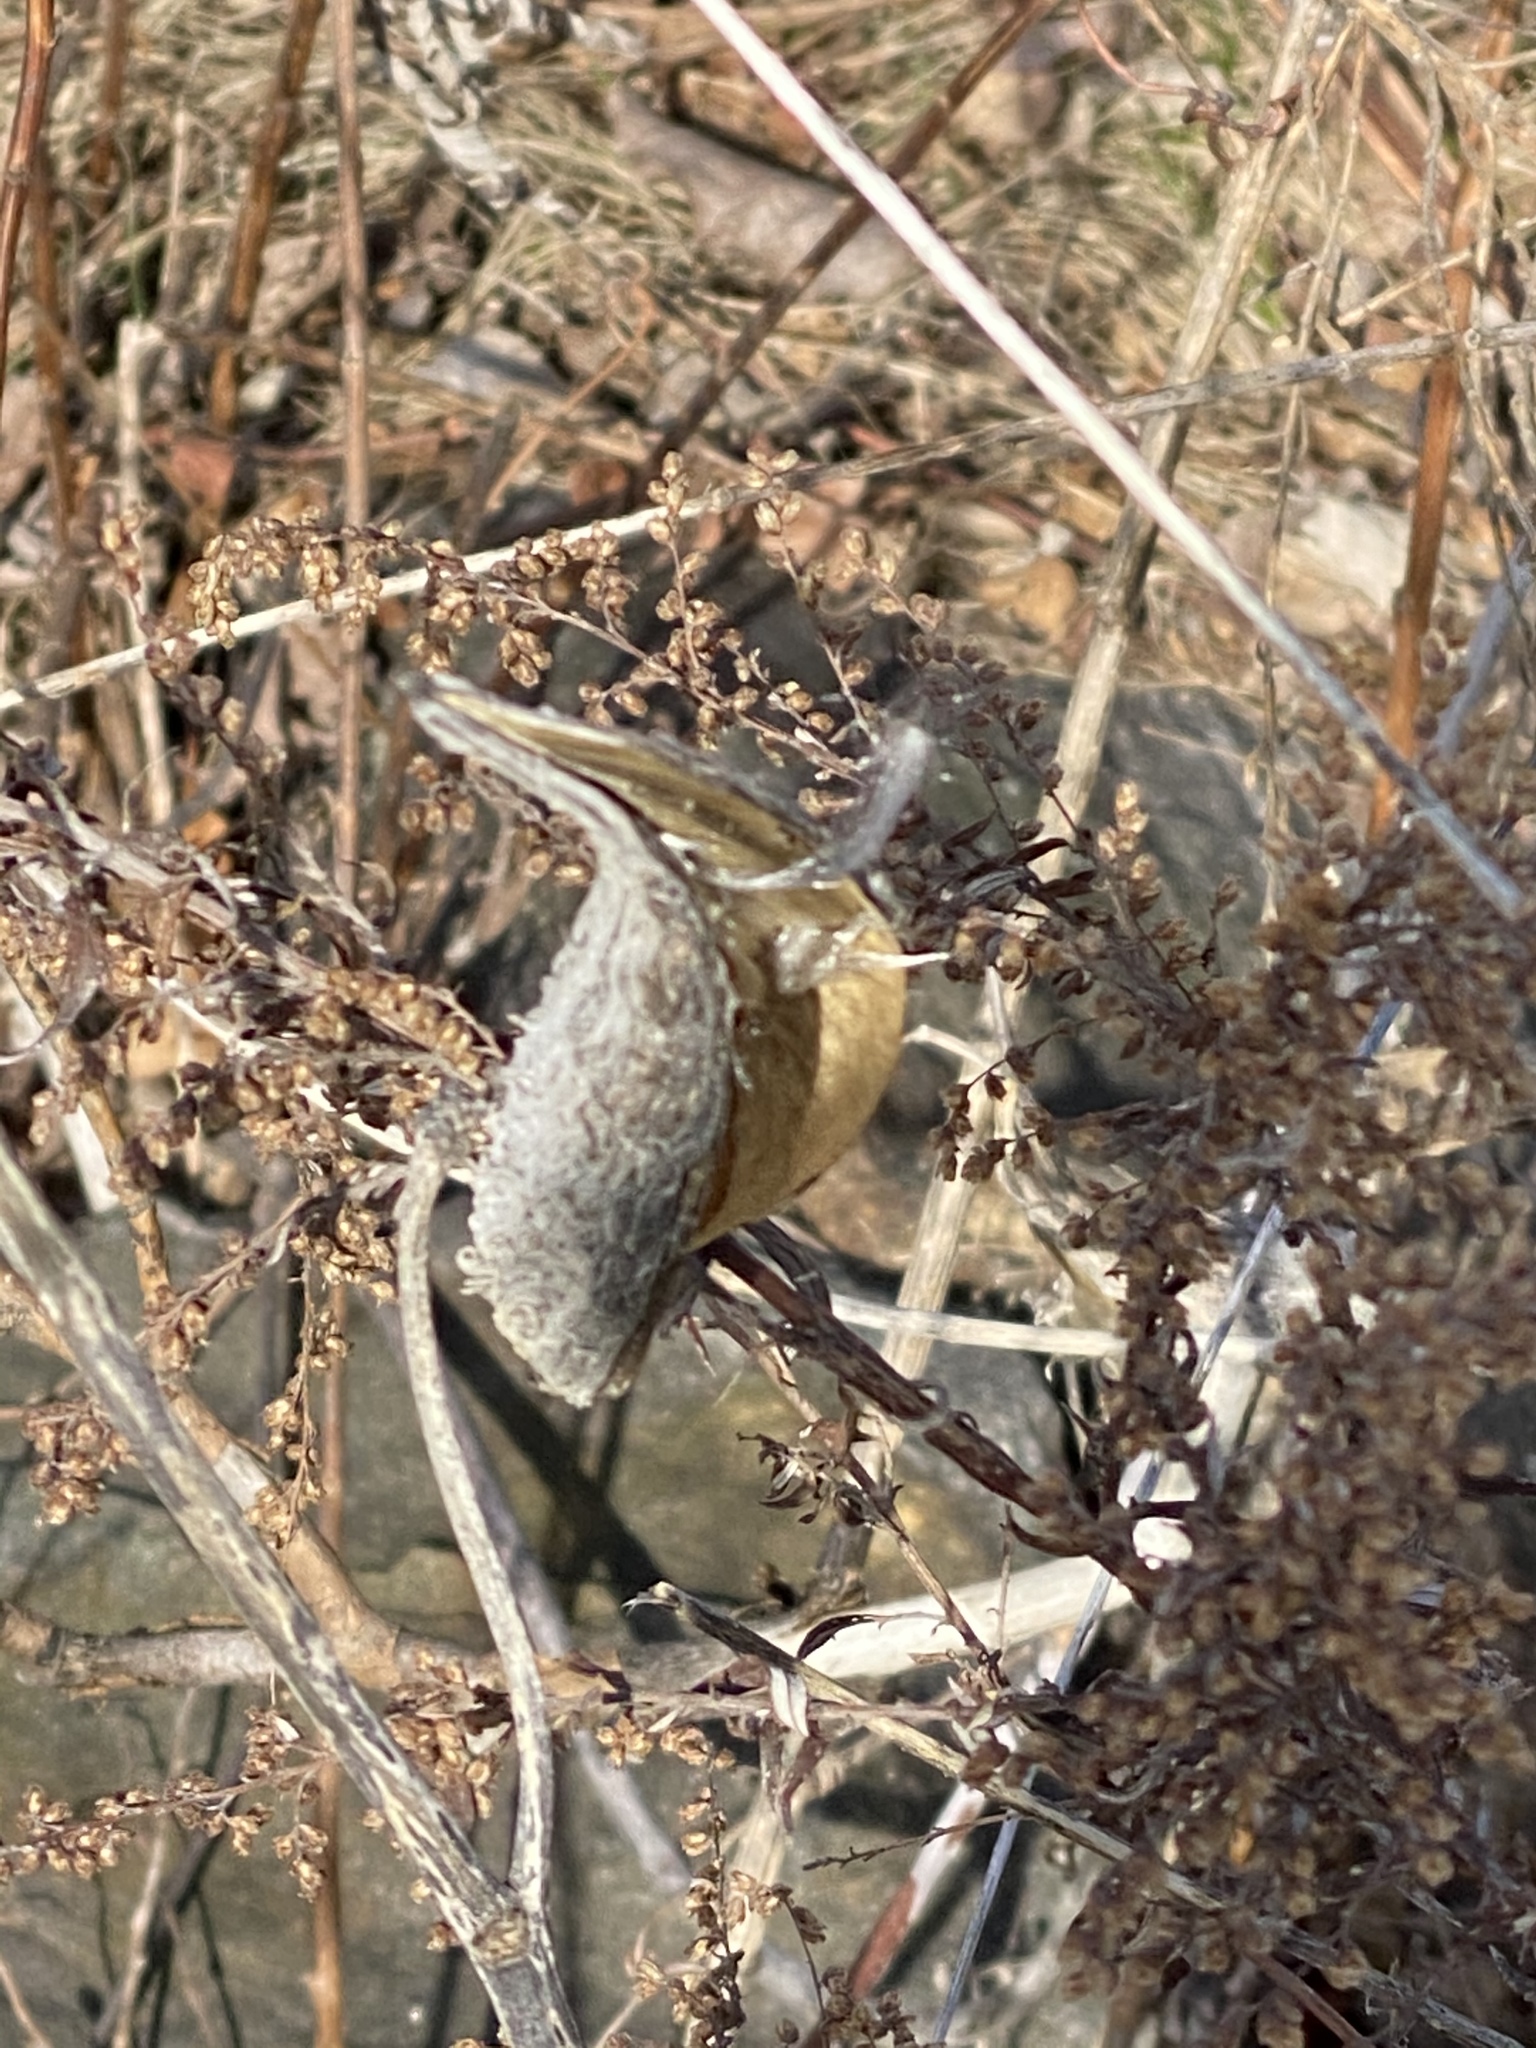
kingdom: Plantae
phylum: Tracheophyta
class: Magnoliopsida
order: Gentianales
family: Apocynaceae
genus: Asclepias
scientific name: Asclepias syriaca
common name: Common milkweed
